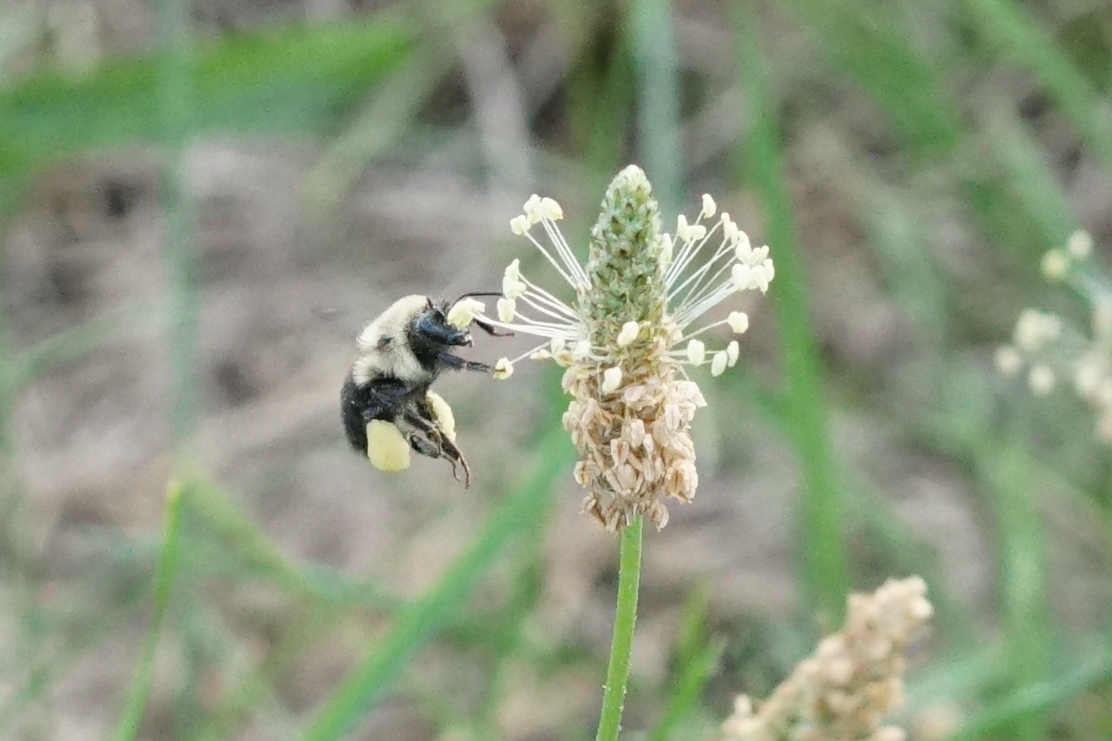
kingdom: Animalia
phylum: Arthropoda
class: Insecta
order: Hymenoptera
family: Apidae
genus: Bombus
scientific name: Bombus impatiens
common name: Common eastern bumble bee
